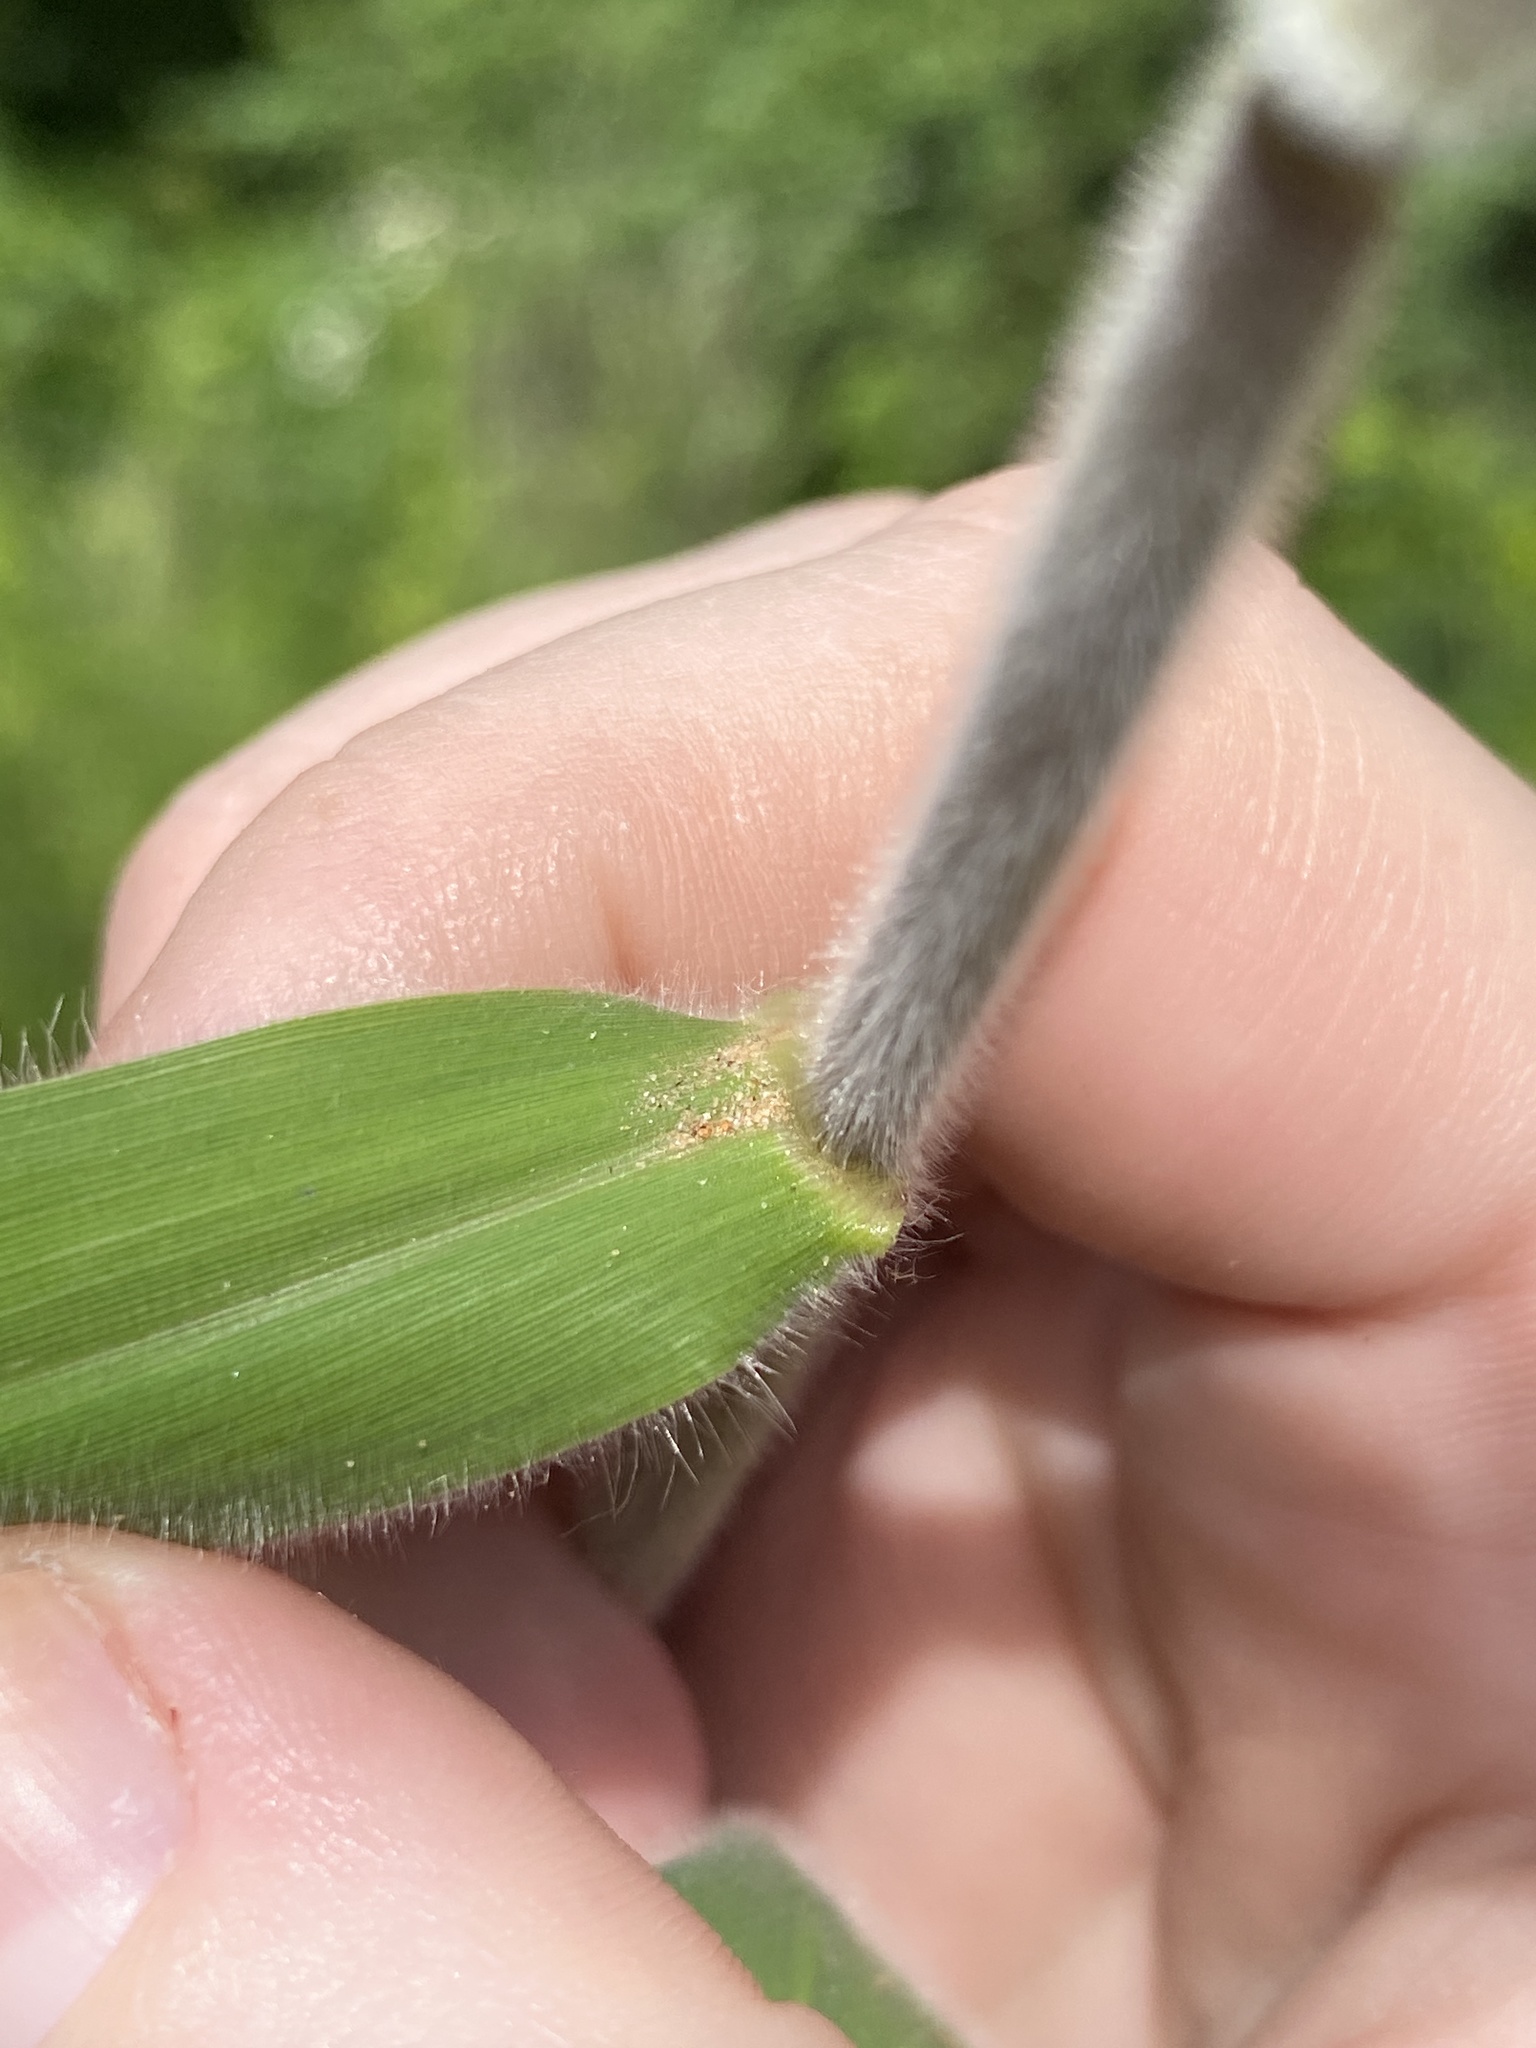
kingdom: Plantae
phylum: Tracheophyta
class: Liliopsida
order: Poales
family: Poaceae
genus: Dichanthelium
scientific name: Dichanthelium scoparium
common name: Velvety panic grass
